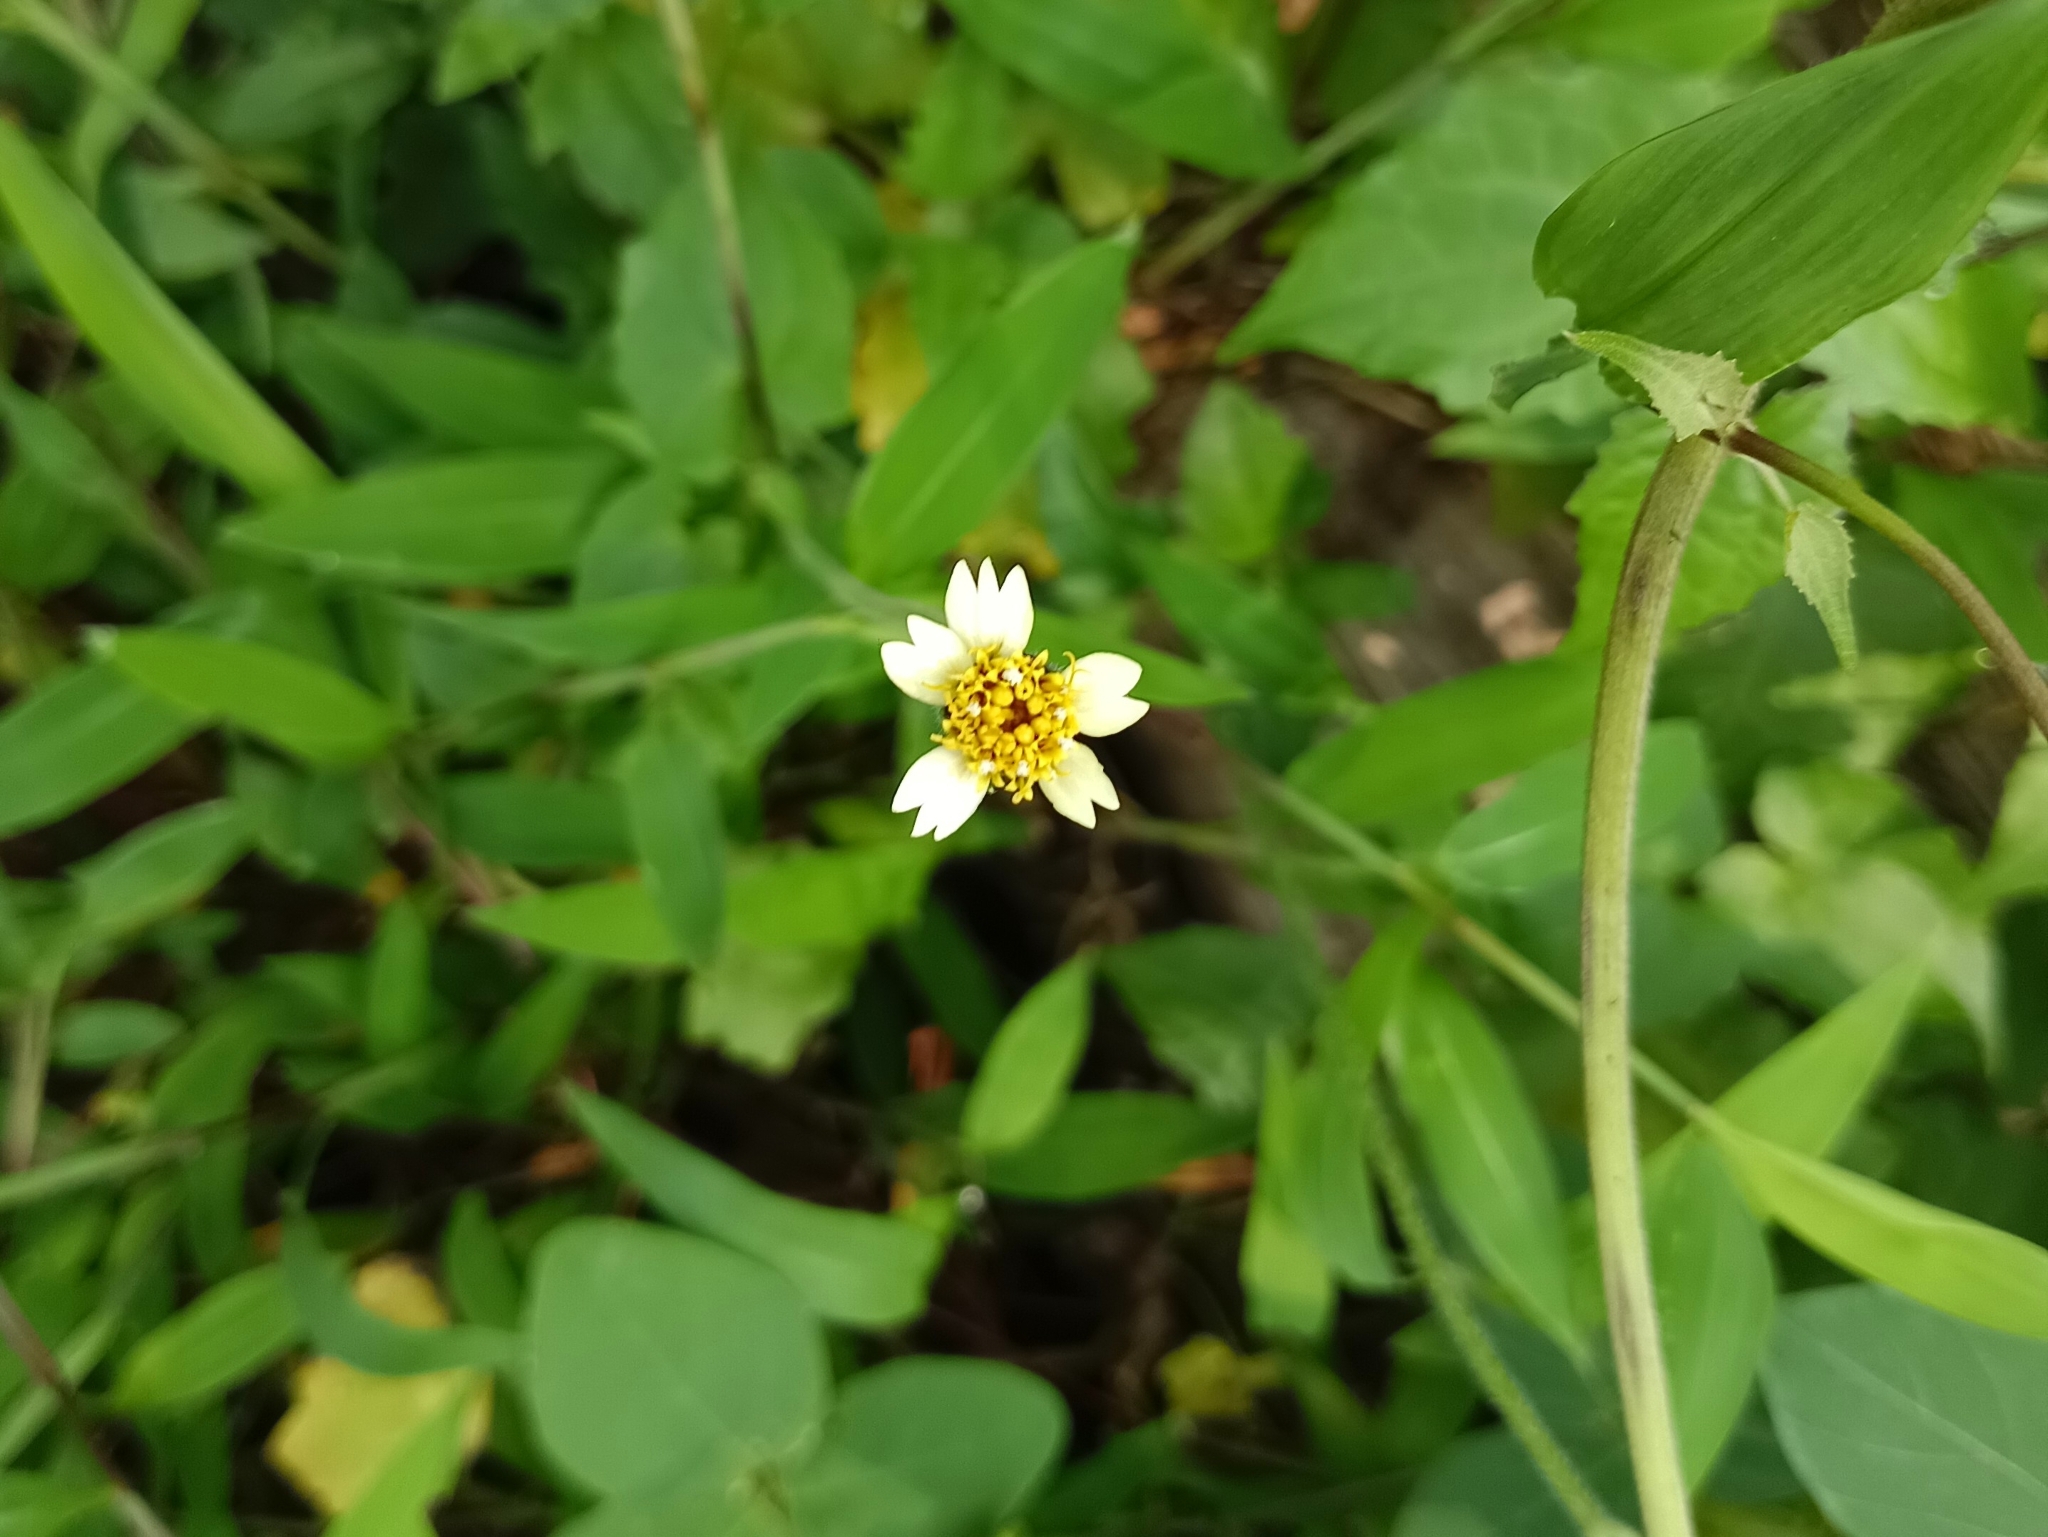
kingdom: Plantae
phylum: Tracheophyta
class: Magnoliopsida
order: Asterales
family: Asteraceae
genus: Tridax
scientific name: Tridax procumbens
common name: Coatbuttons
